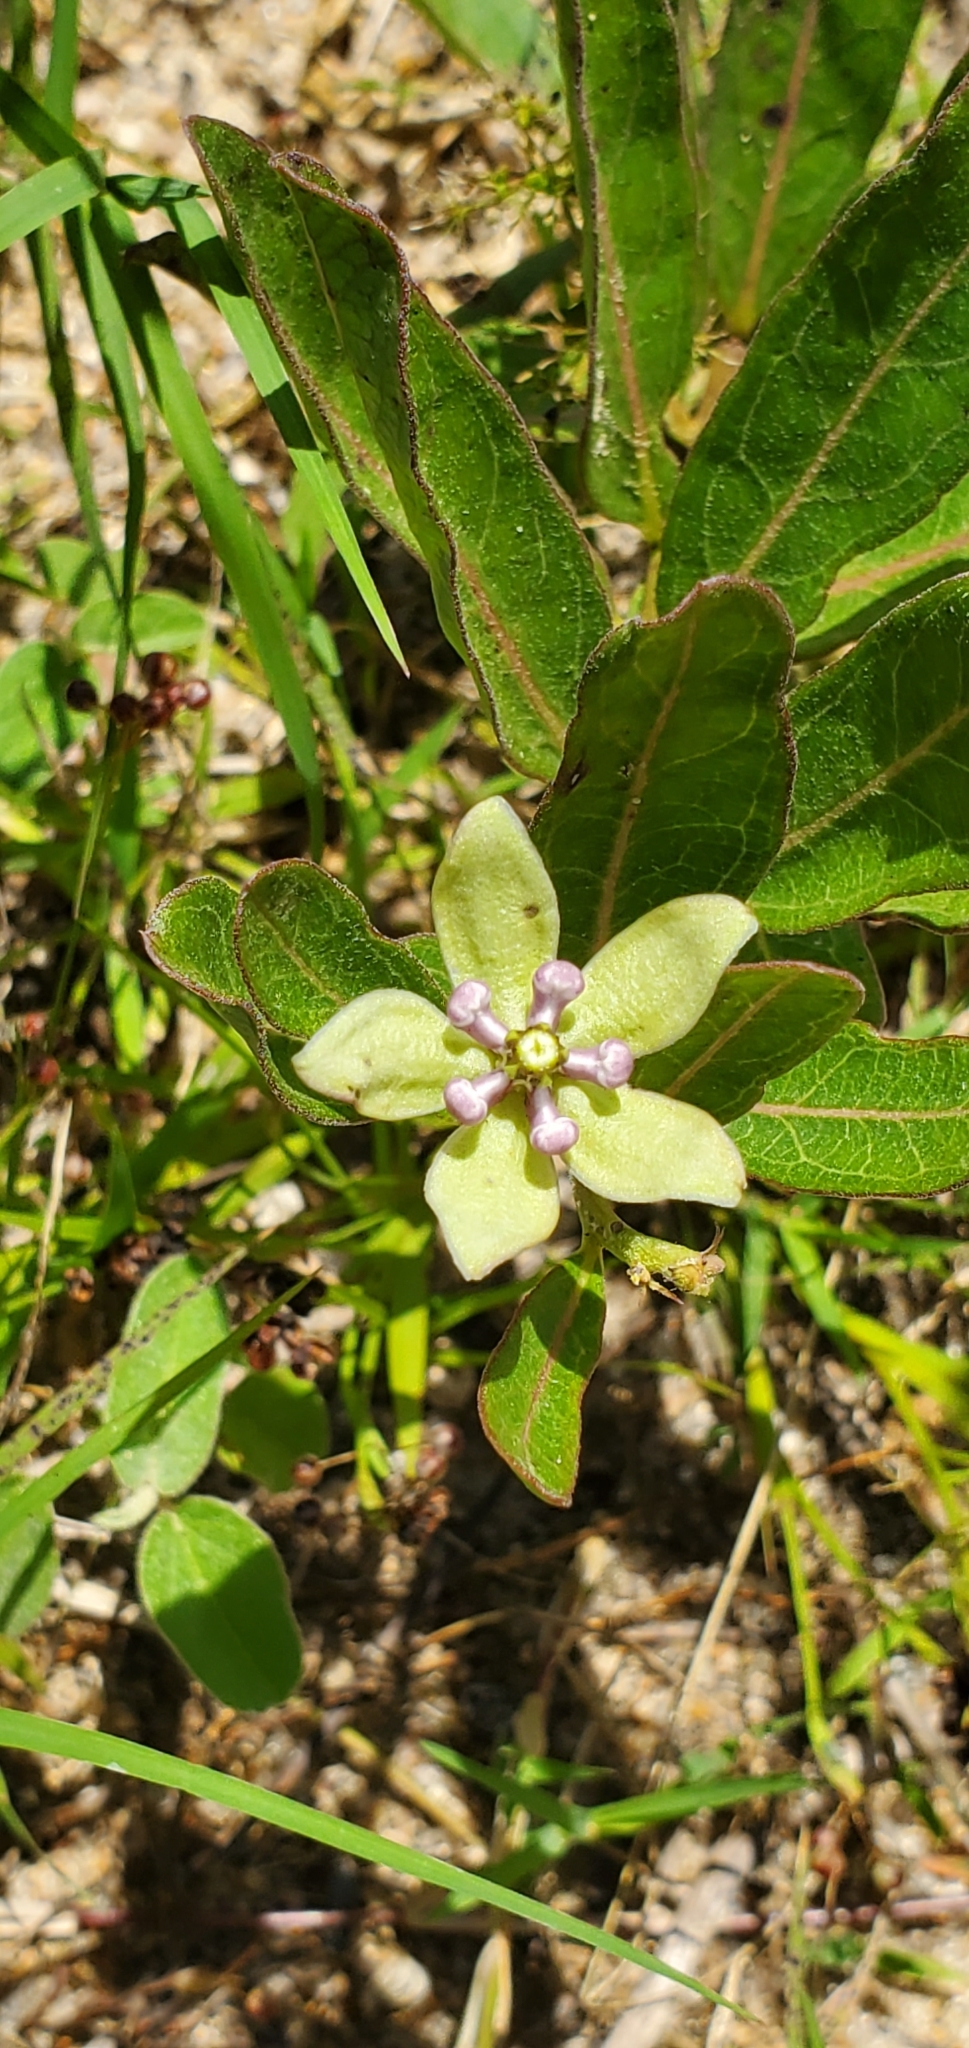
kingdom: Plantae
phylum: Tracheophyta
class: Magnoliopsida
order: Gentianales
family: Apocynaceae
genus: Asclepias
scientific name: Asclepias viridis
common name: Antelope-horns
